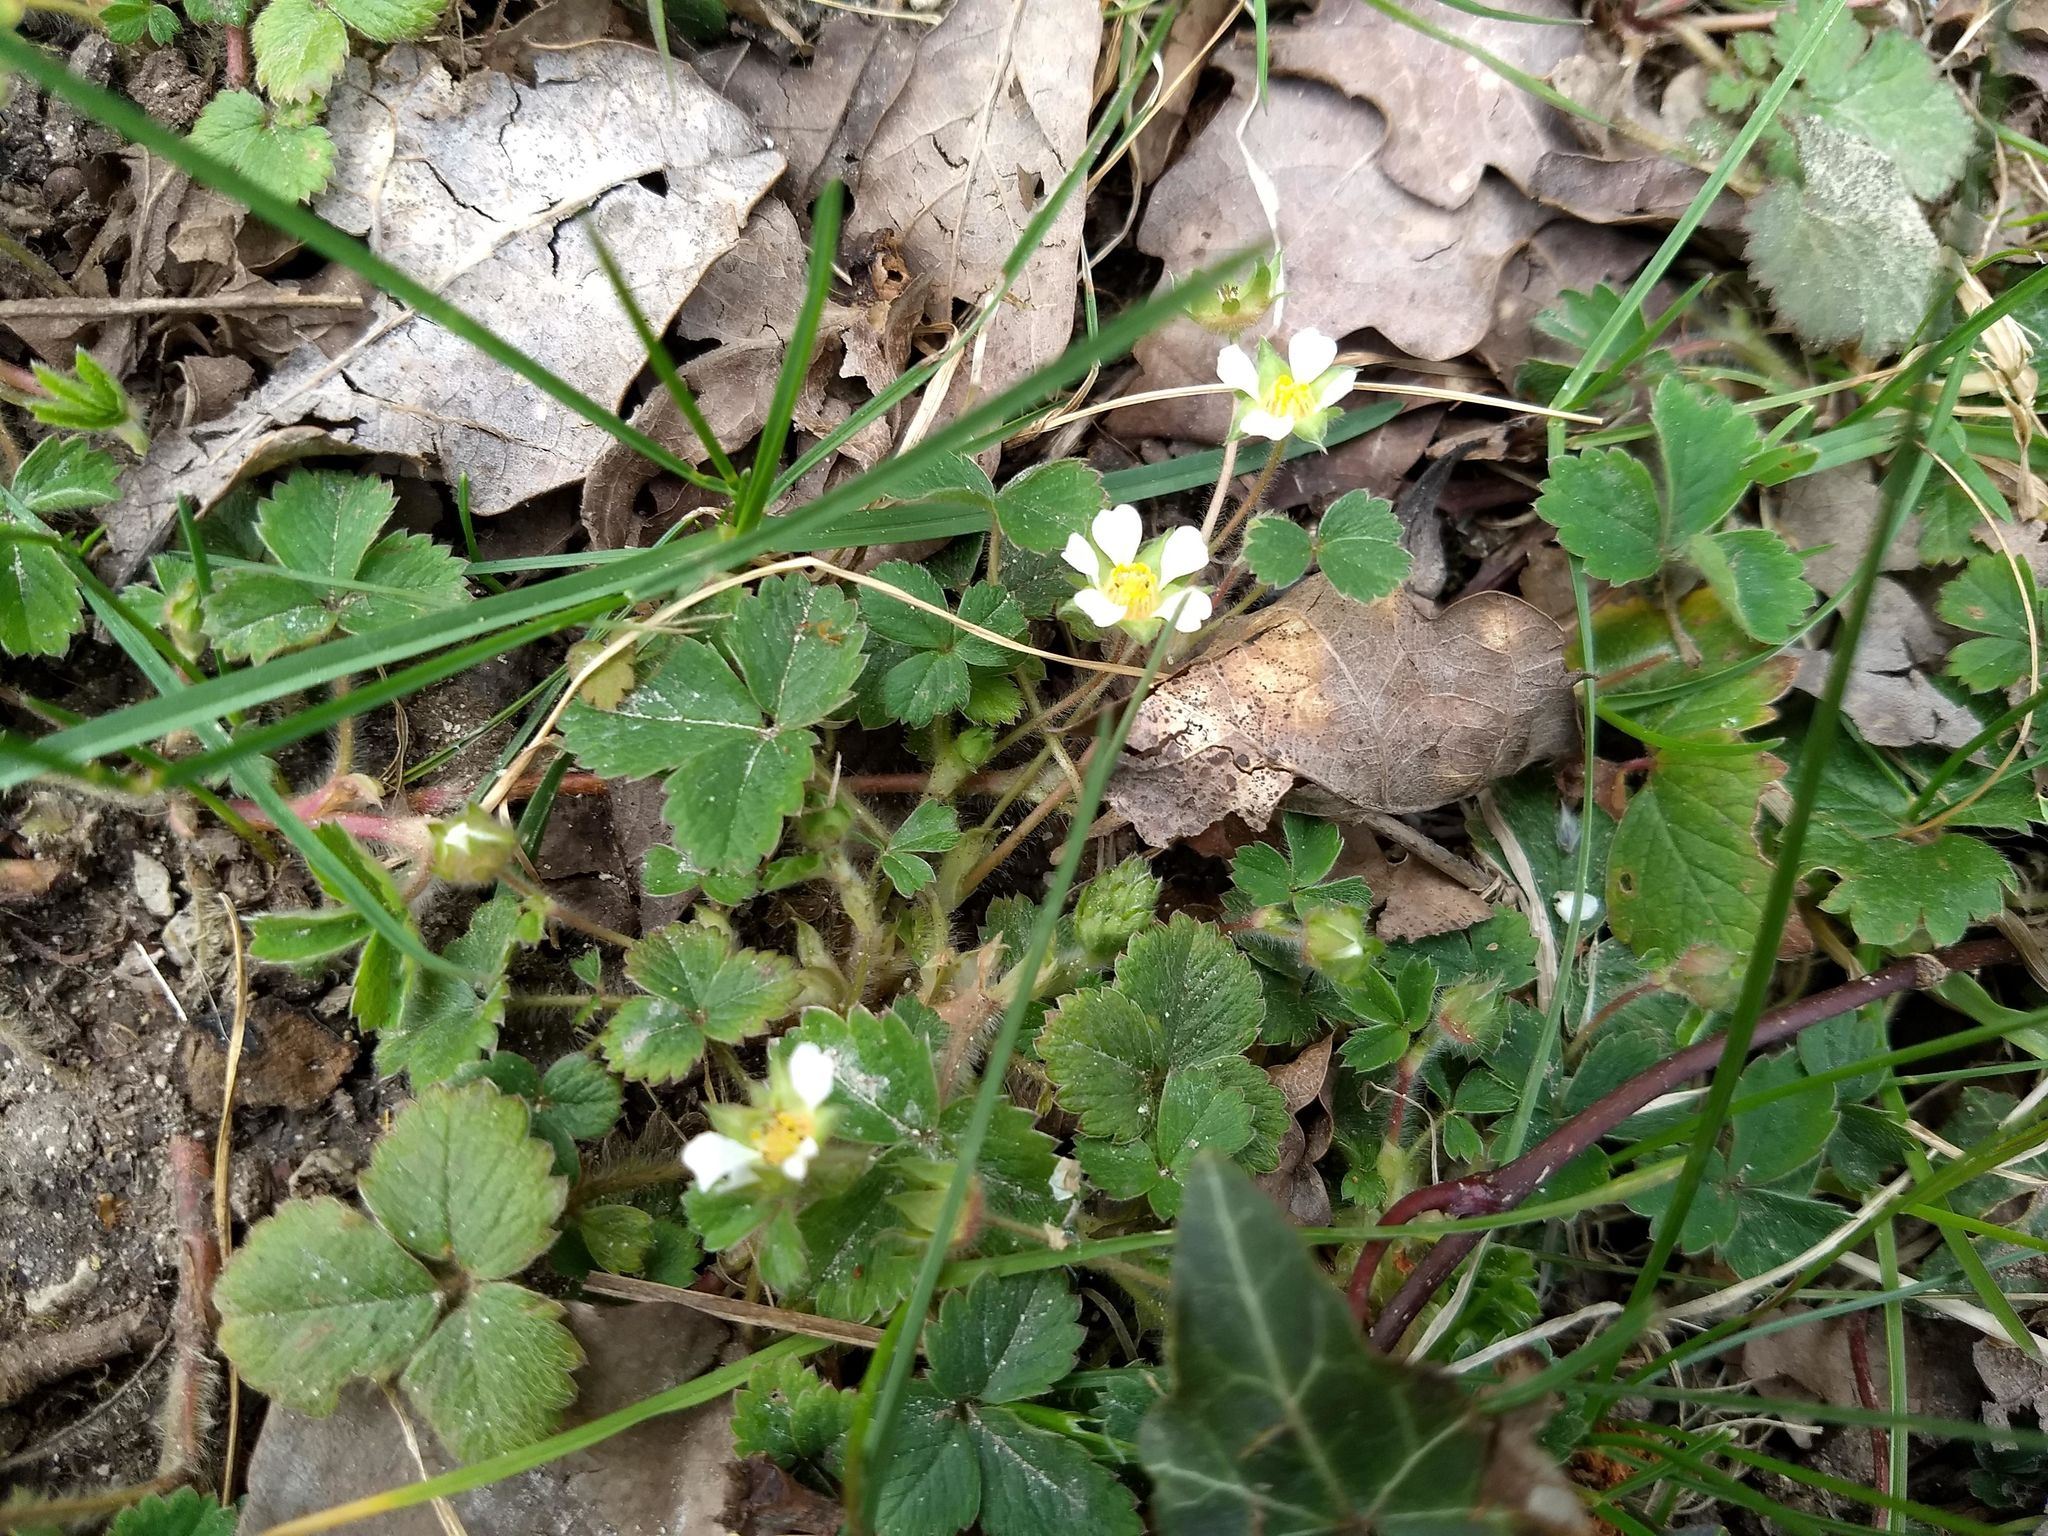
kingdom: Plantae
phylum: Tracheophyta
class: Magnoliopsida
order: Rosales
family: Rosaceae
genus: Potentilla
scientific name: Potentilla sterilis
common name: Barren strawberry
